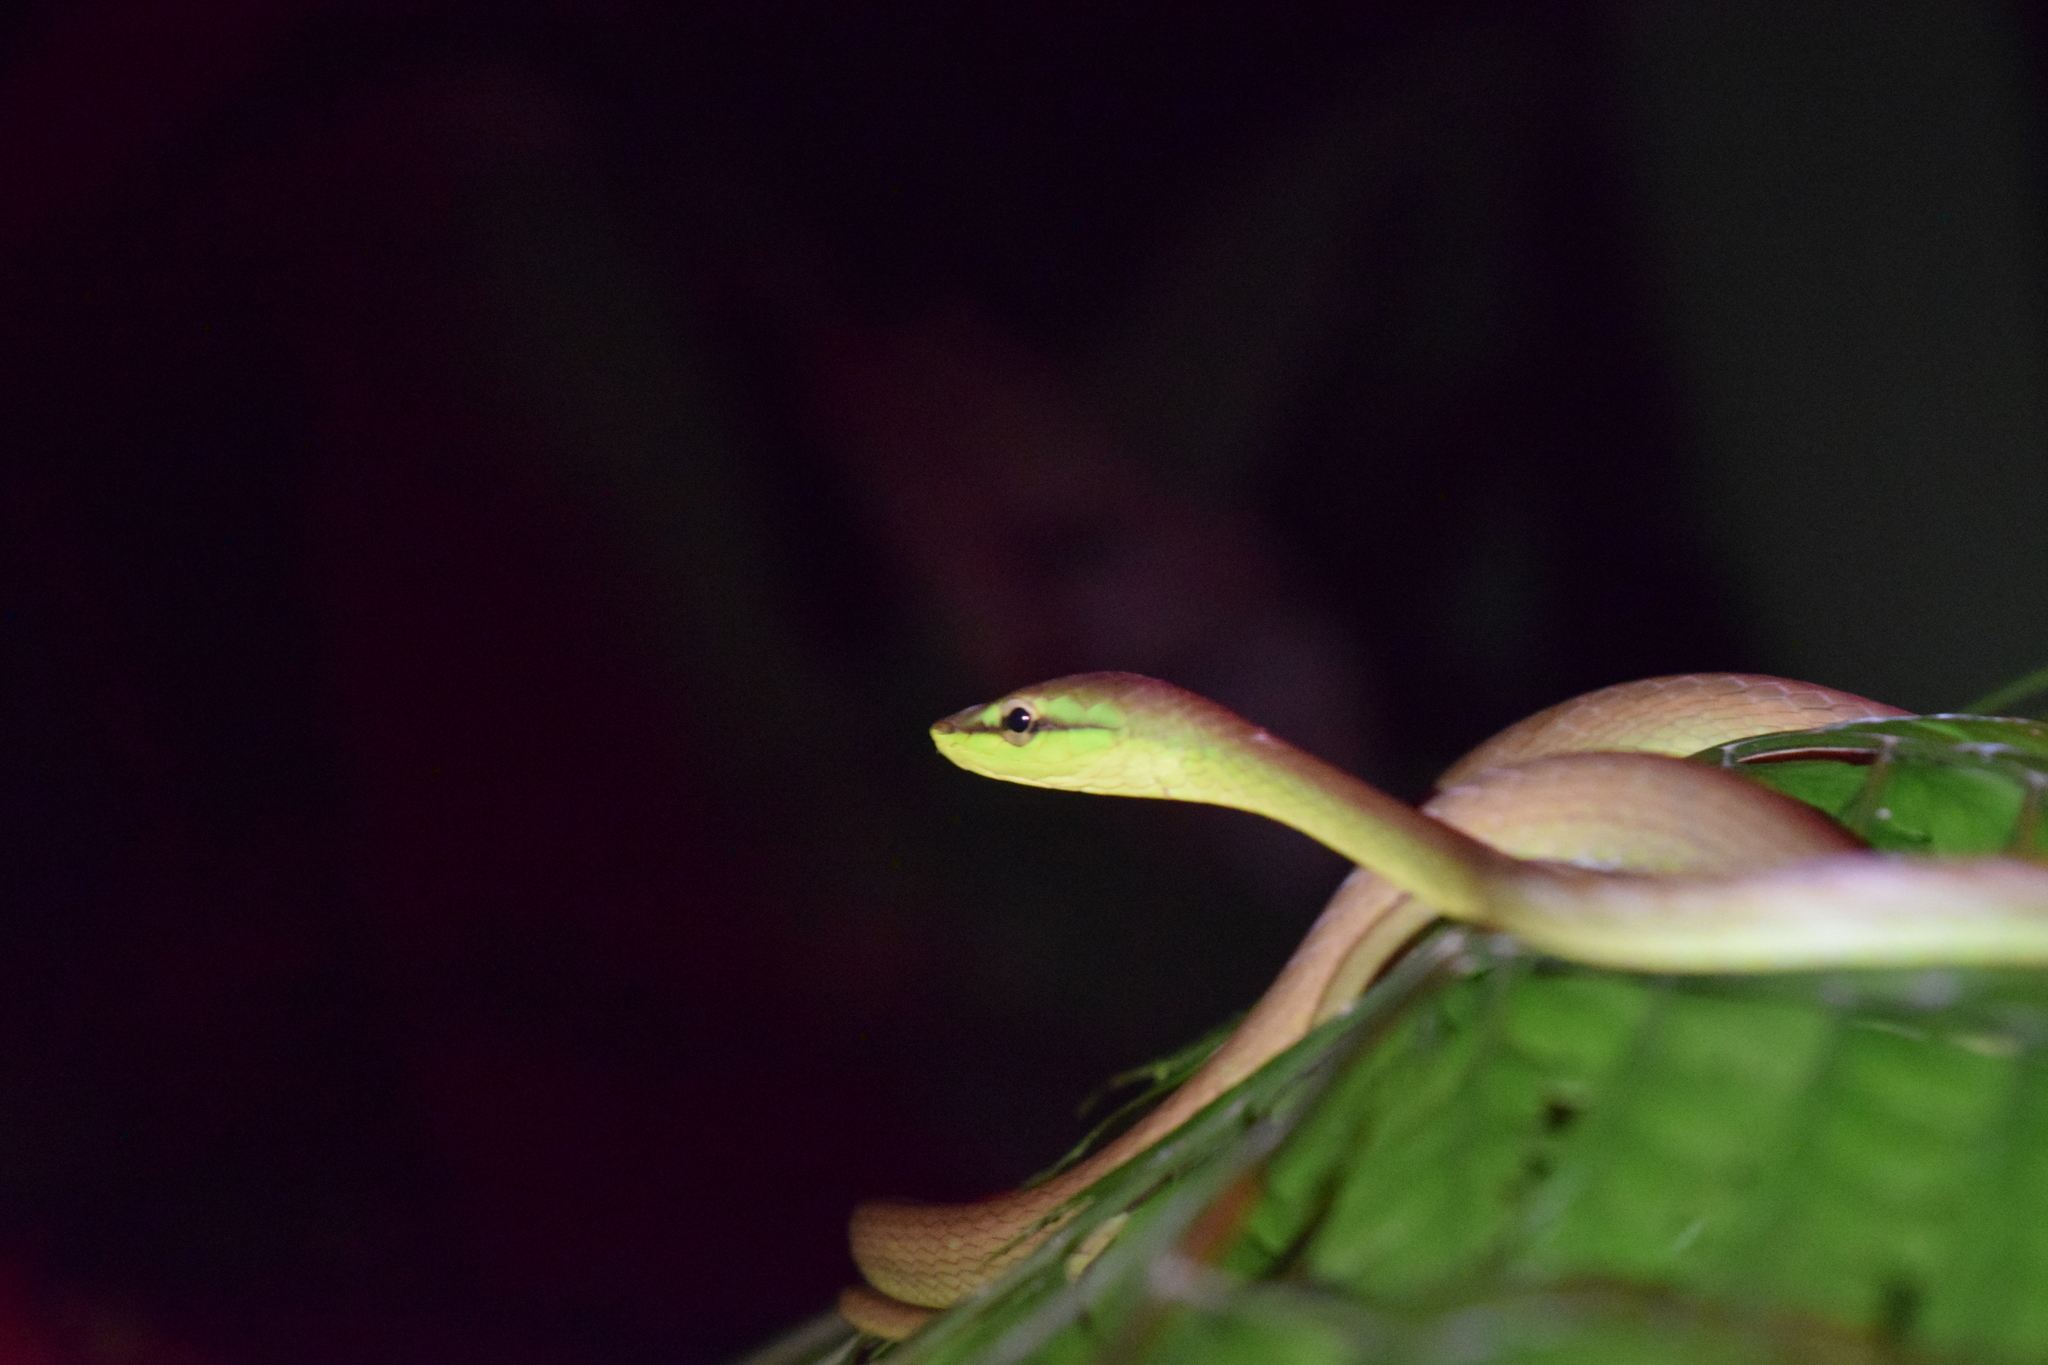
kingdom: Animalia
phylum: Chordata
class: Squamata
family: Colubridae
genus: Oxybelis
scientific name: Oxybelis brevirostris
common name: Cope's vine snake
